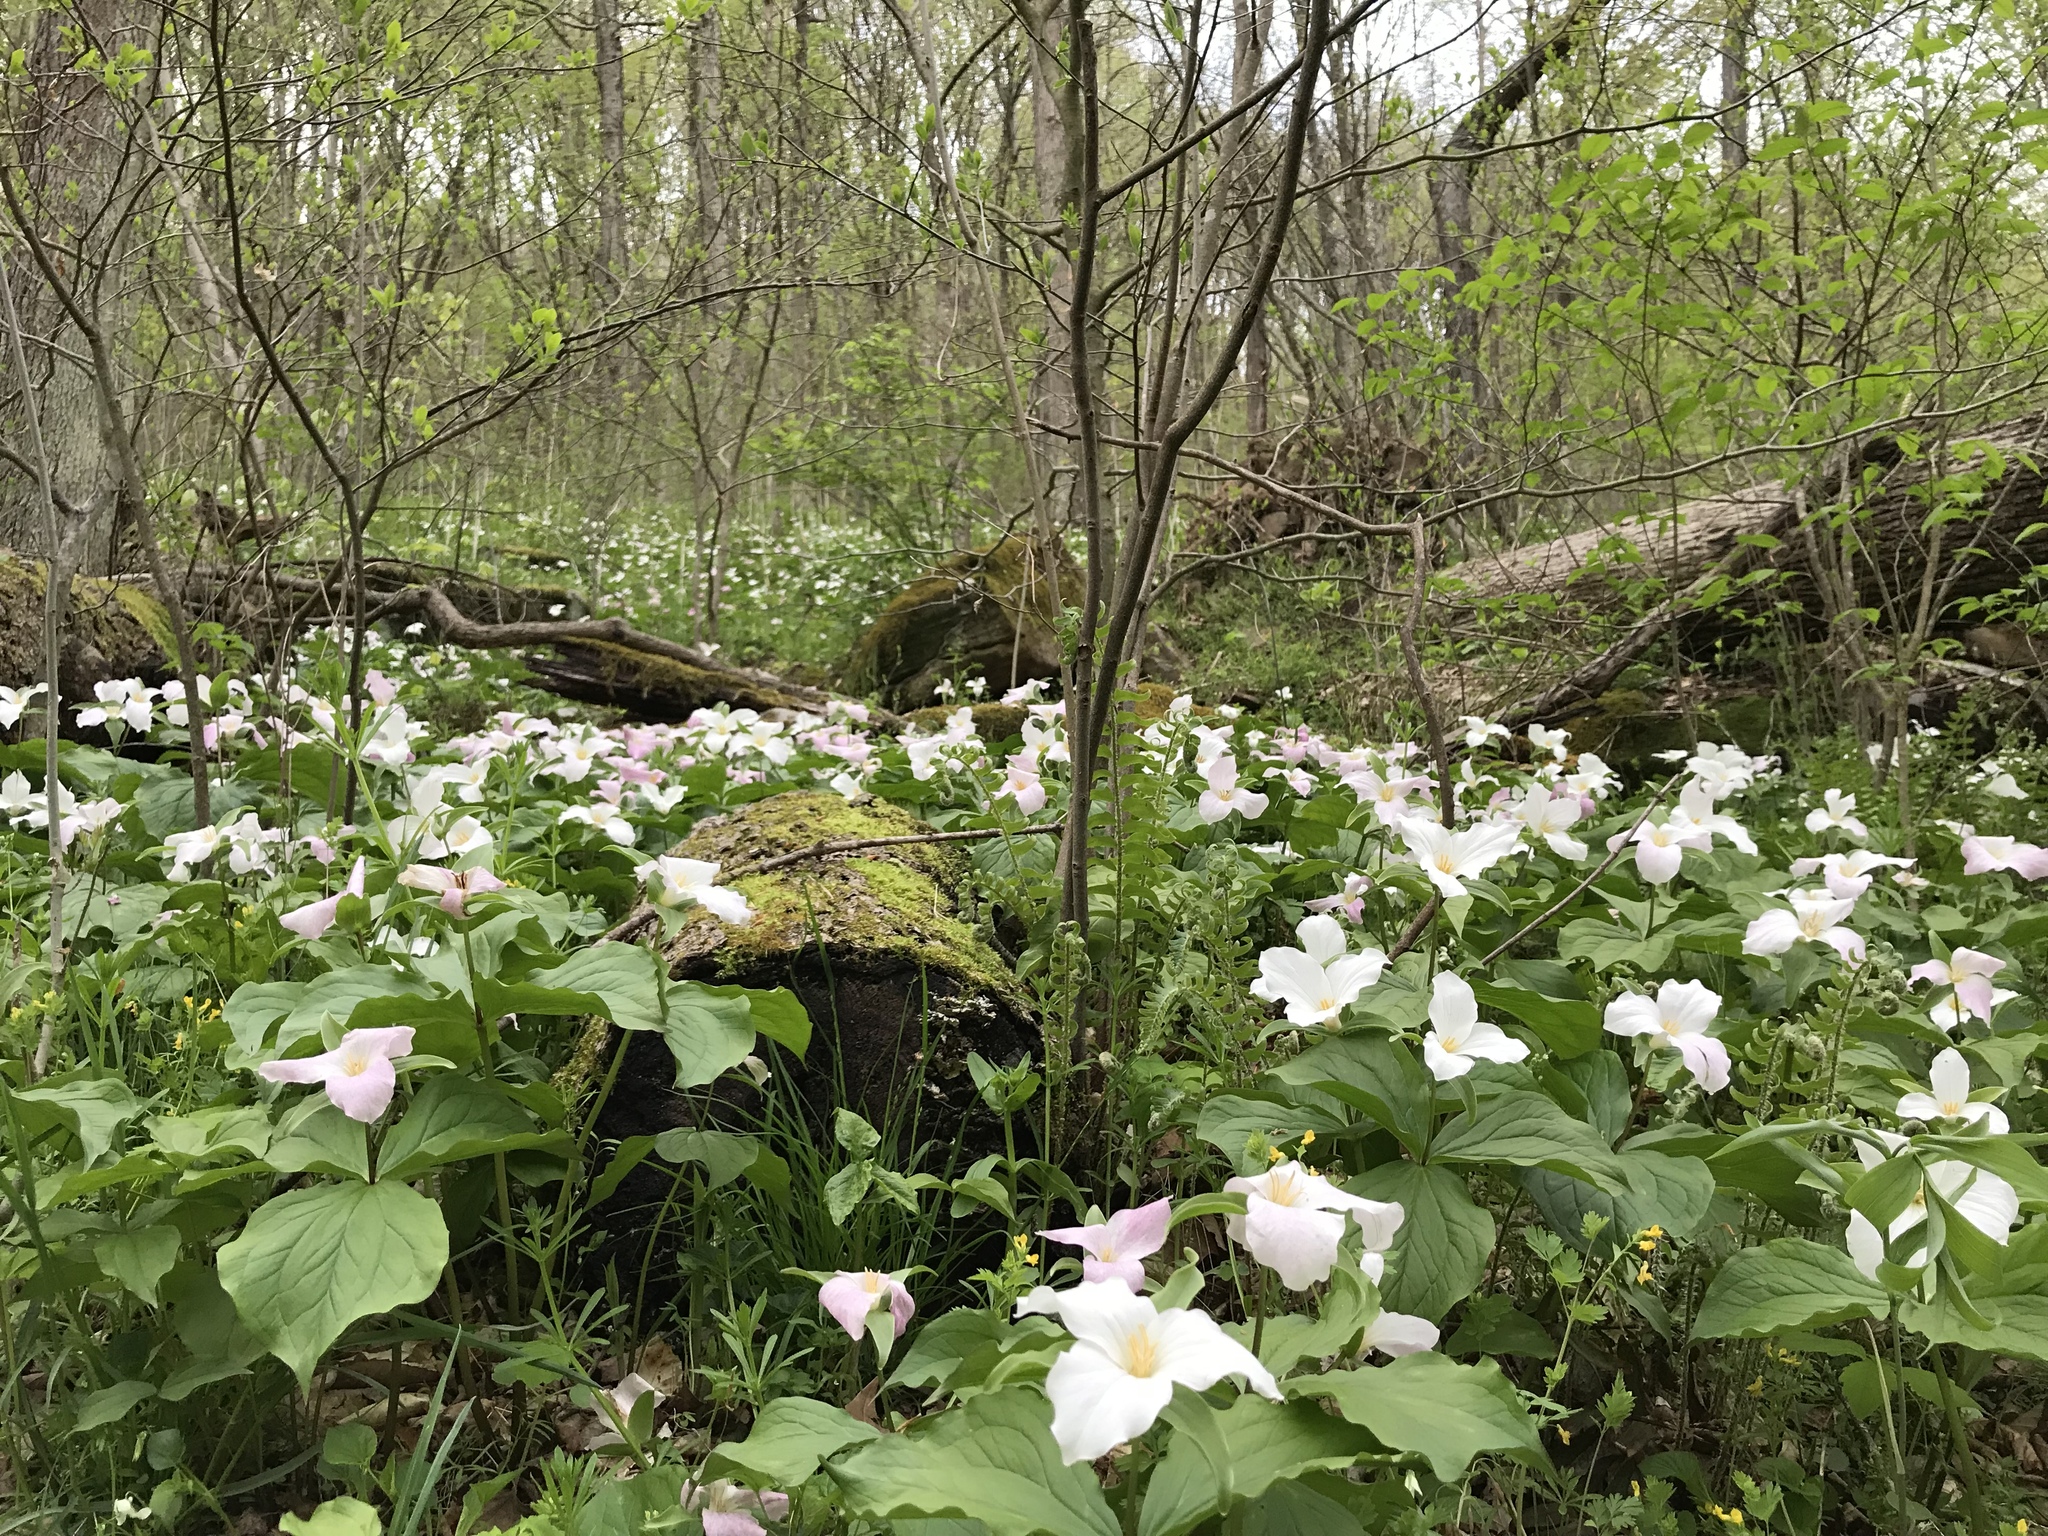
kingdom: Plantae
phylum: Tracheophyta
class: Liliopsida
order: Liliales
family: Melanthiaceae
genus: Trillium
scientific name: Trillium grandiflorum
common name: Great white trillium
